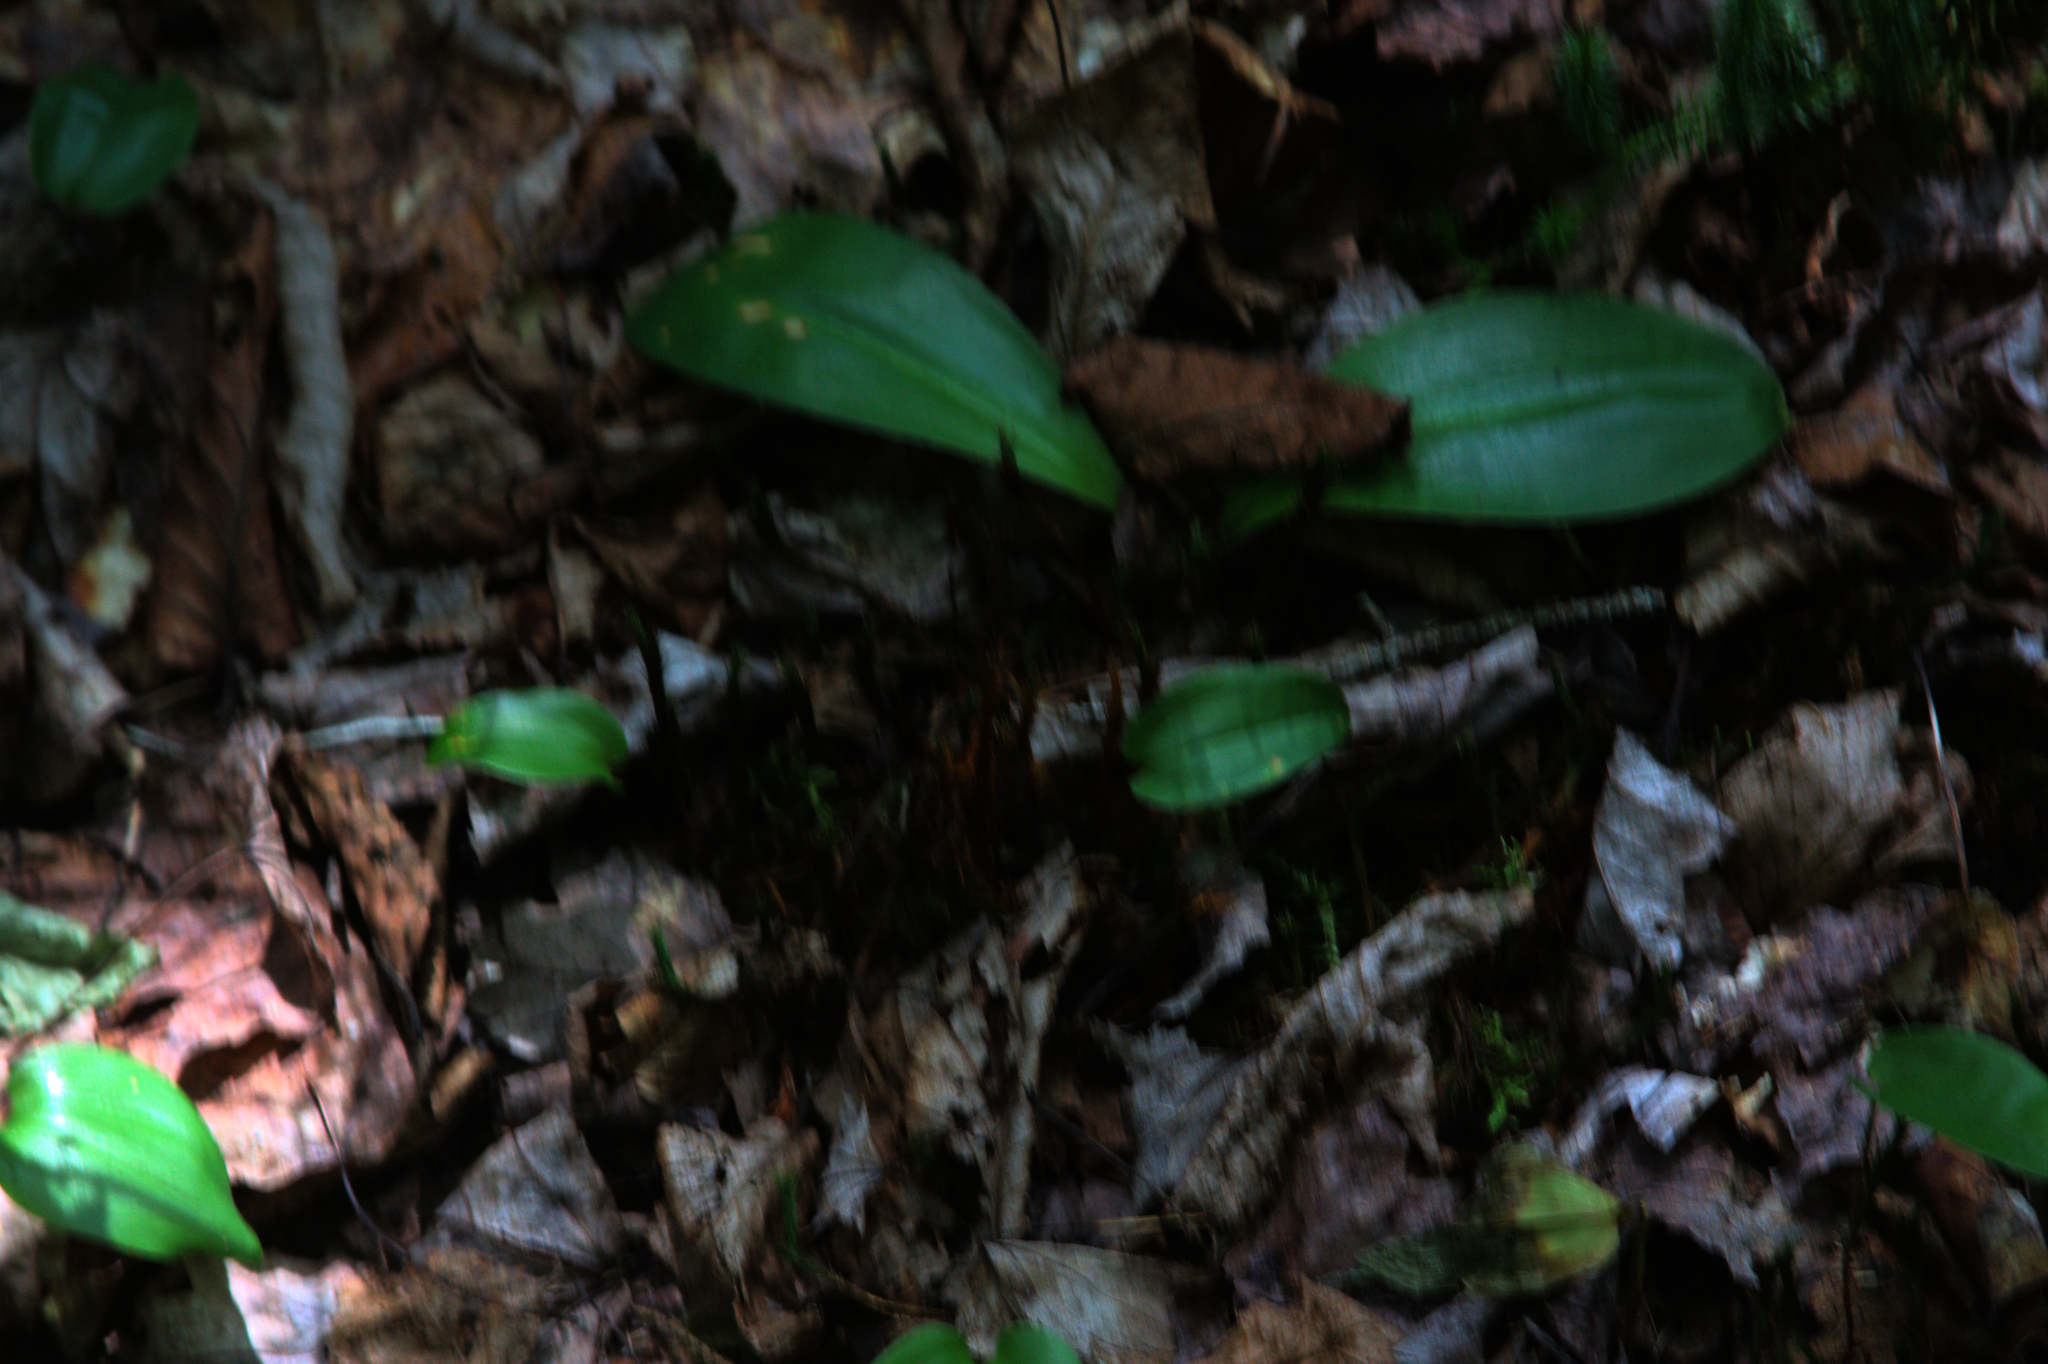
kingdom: Plantae
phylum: Tracheophyta
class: Liliopsida
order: Liliales
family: Liliaceae
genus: Clintonia
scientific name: Clintonia borealis
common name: Yellow clintonia
